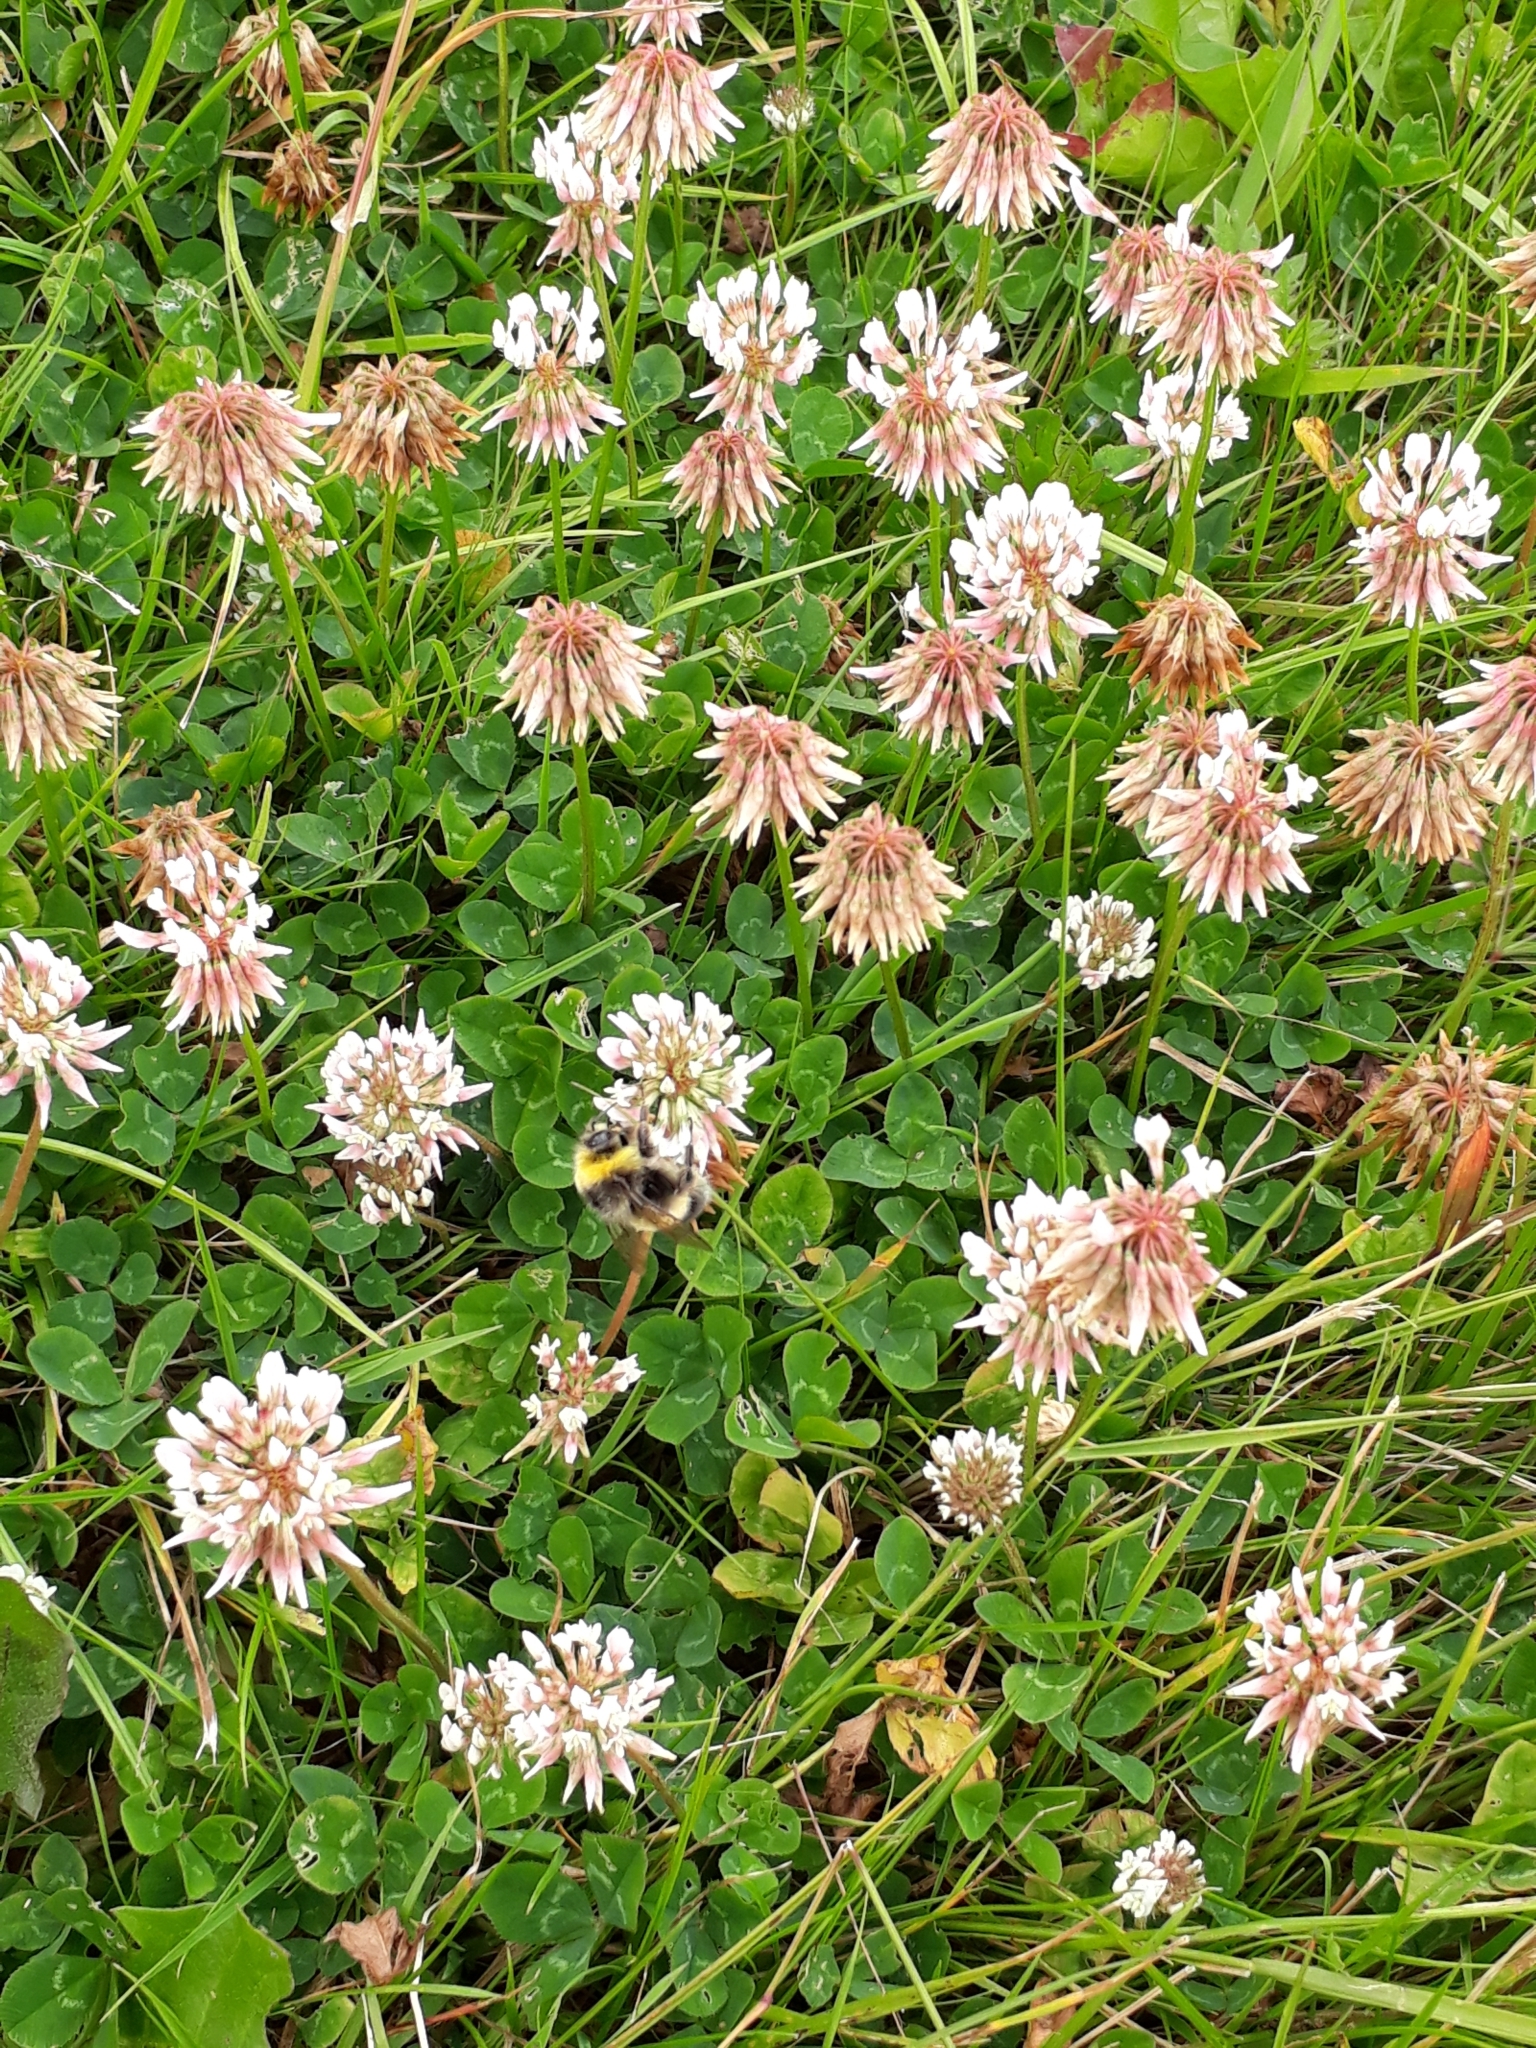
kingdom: Plantae
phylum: Tracheophyta
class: Magnoliopsida
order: Fabales
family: Fabaceae
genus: Trifolium
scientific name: Trifolium repens
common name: White clover
